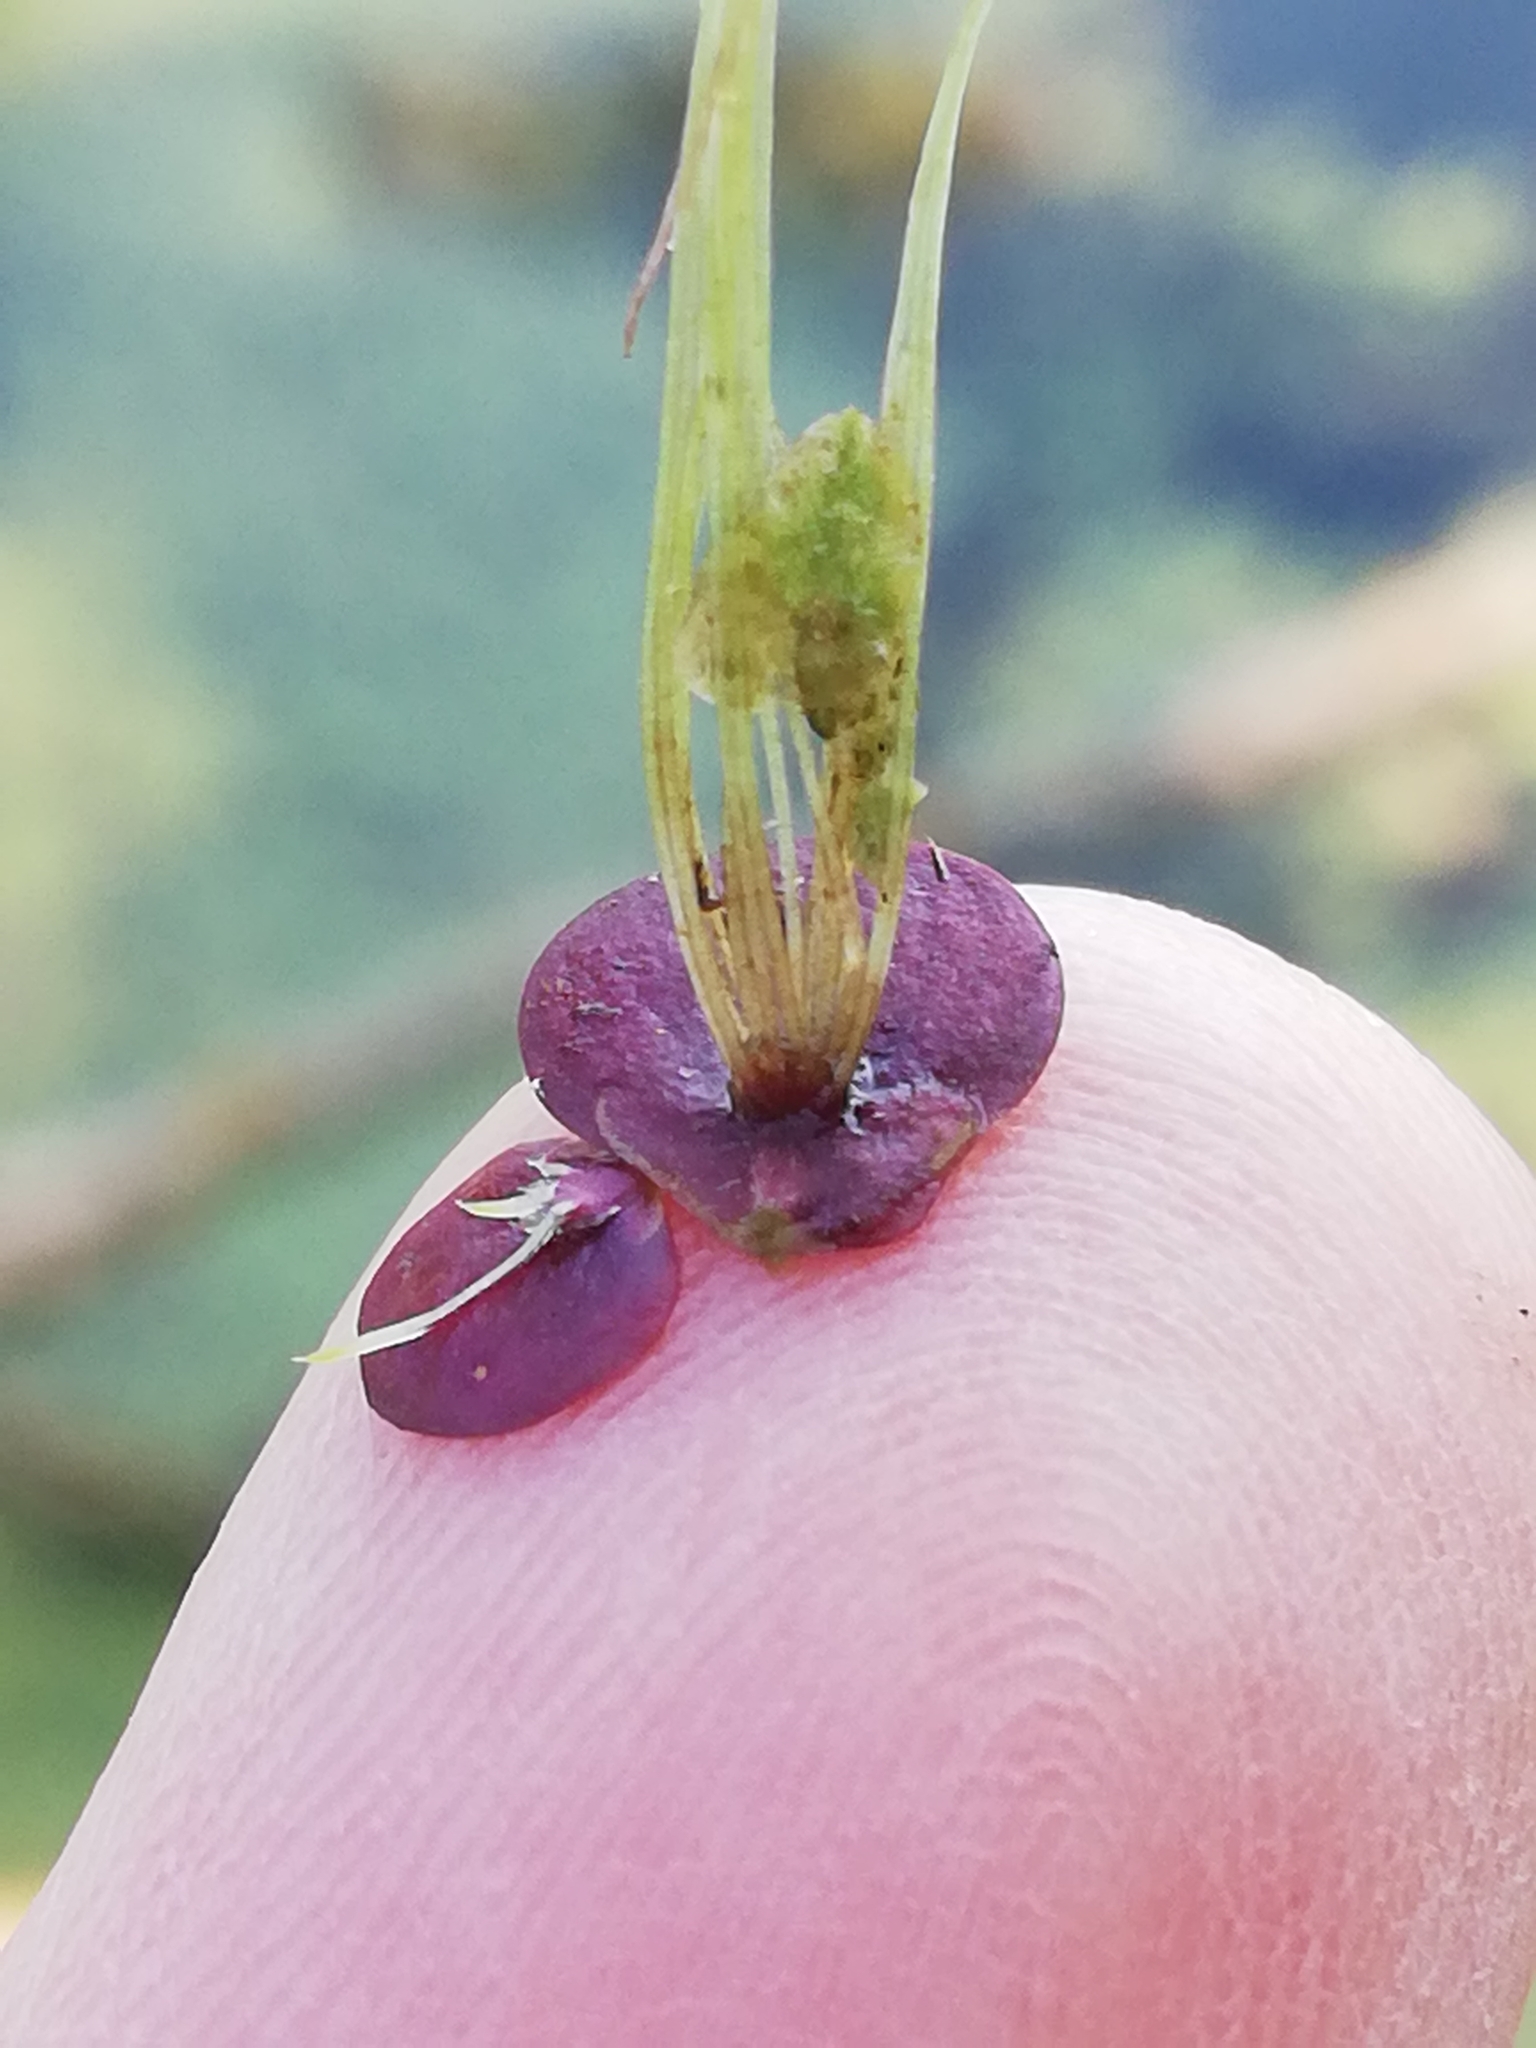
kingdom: Plantae
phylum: Tracheophyta
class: Liliopsida
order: Alismatales
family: Araceae
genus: Spirodela
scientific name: Spirodela polyrhiza
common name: Great duckweed
